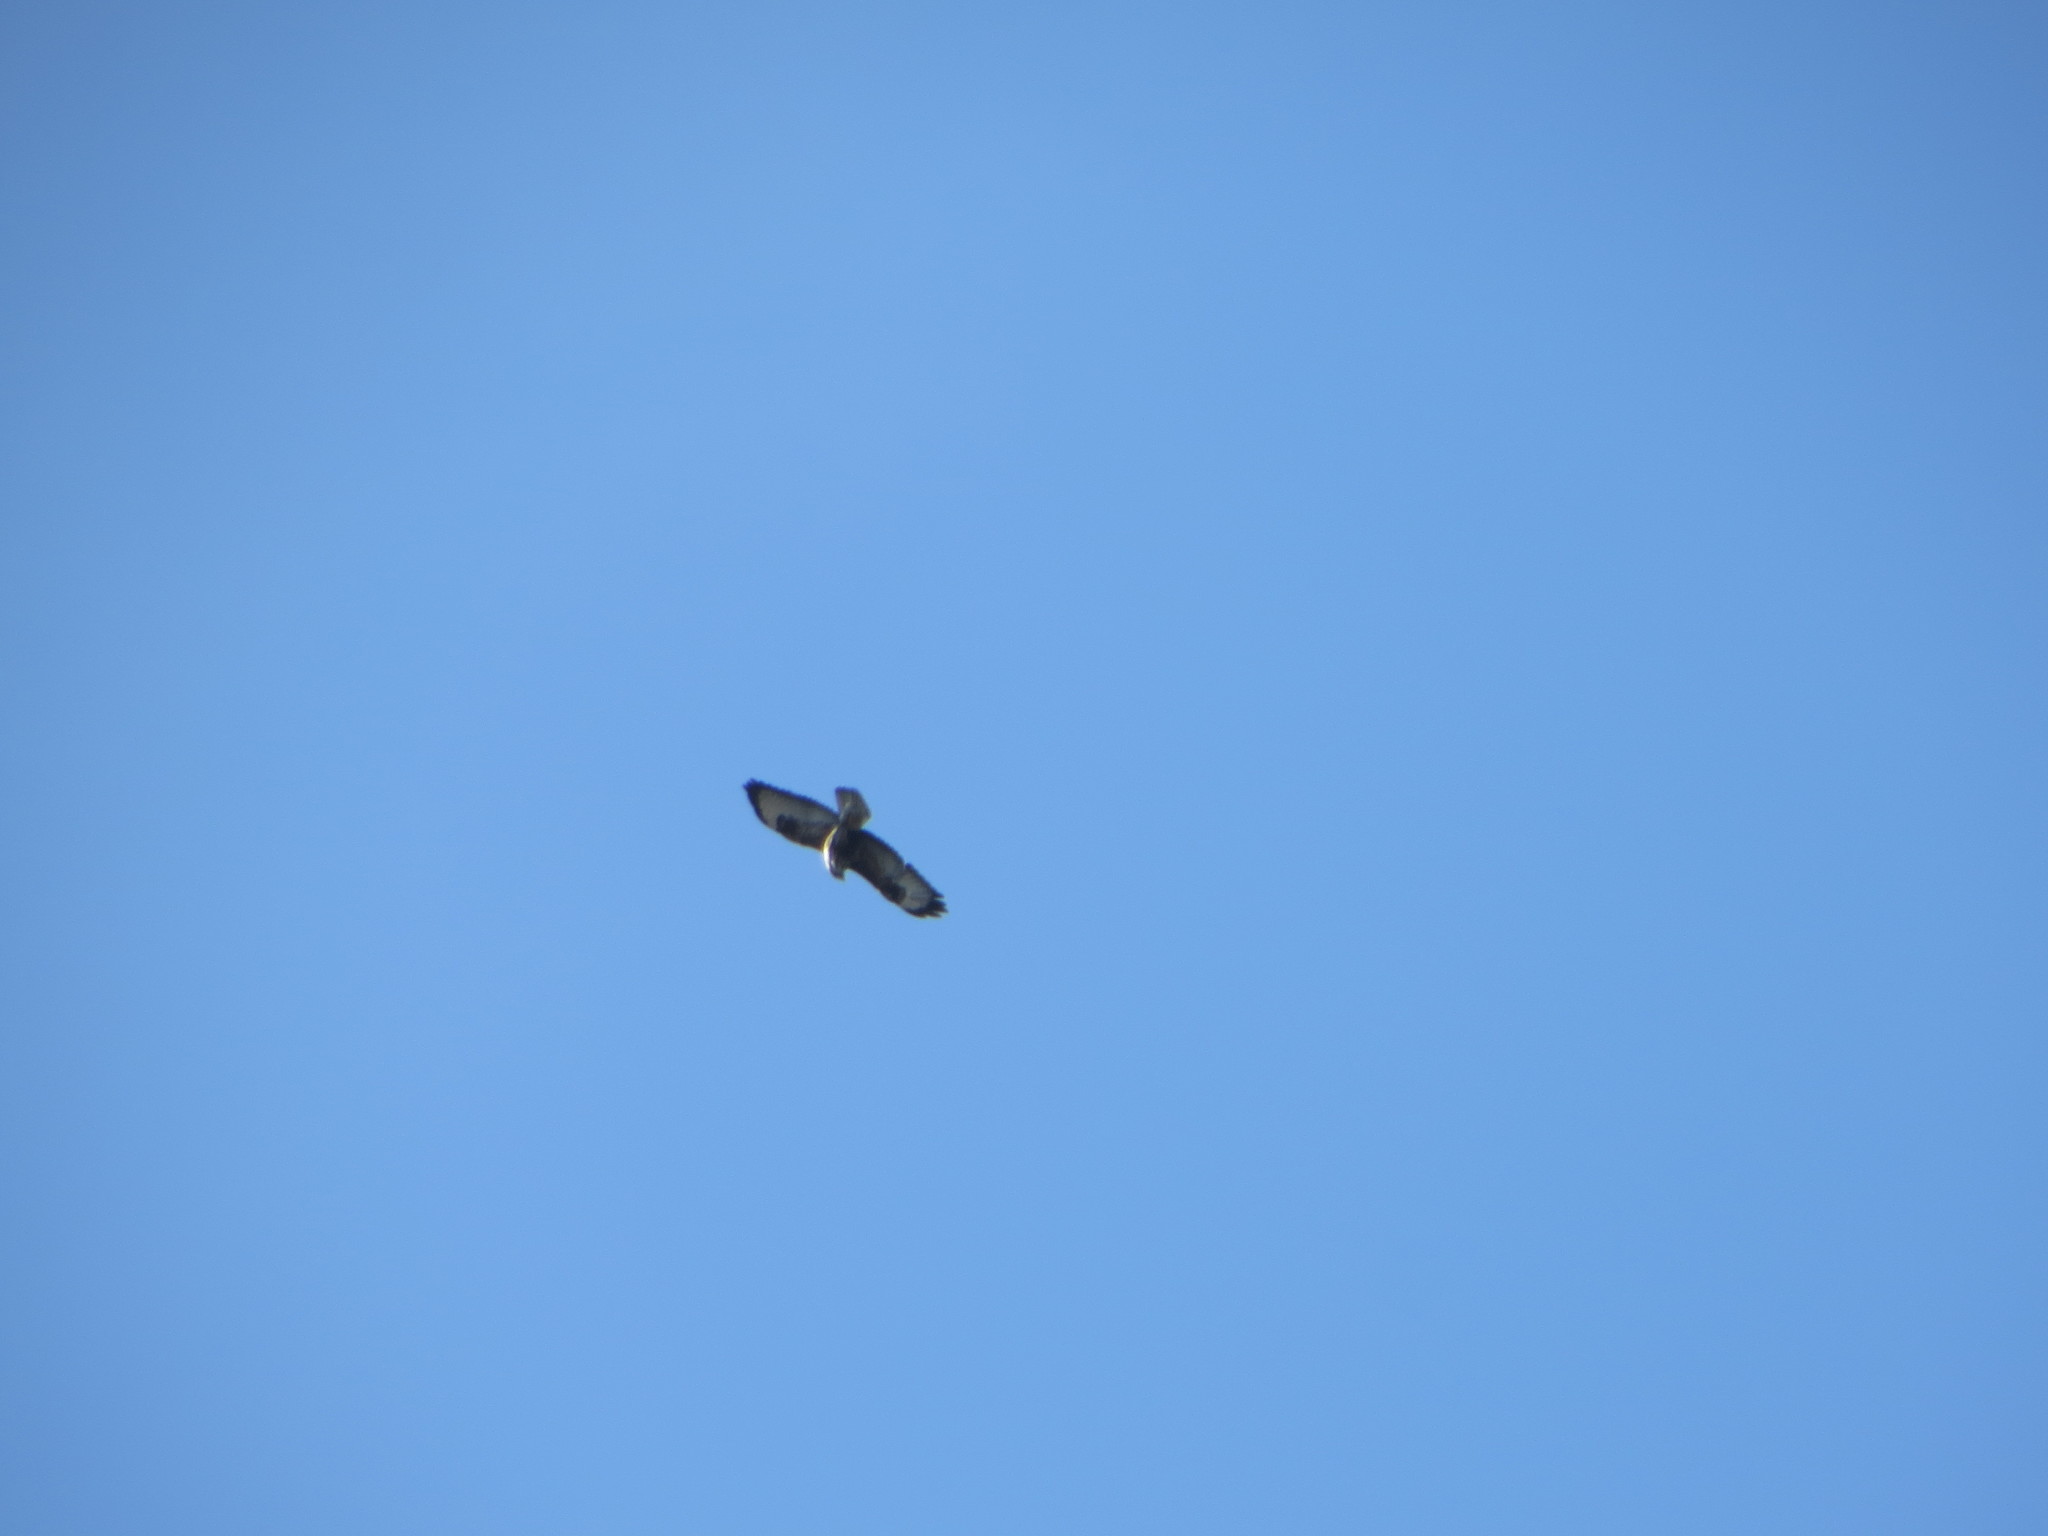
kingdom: Animalia
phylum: Chordata
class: Aves
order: Accipitriformes
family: Accipitridae
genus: Buteo
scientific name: Buteo buteo
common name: Common buzzard
